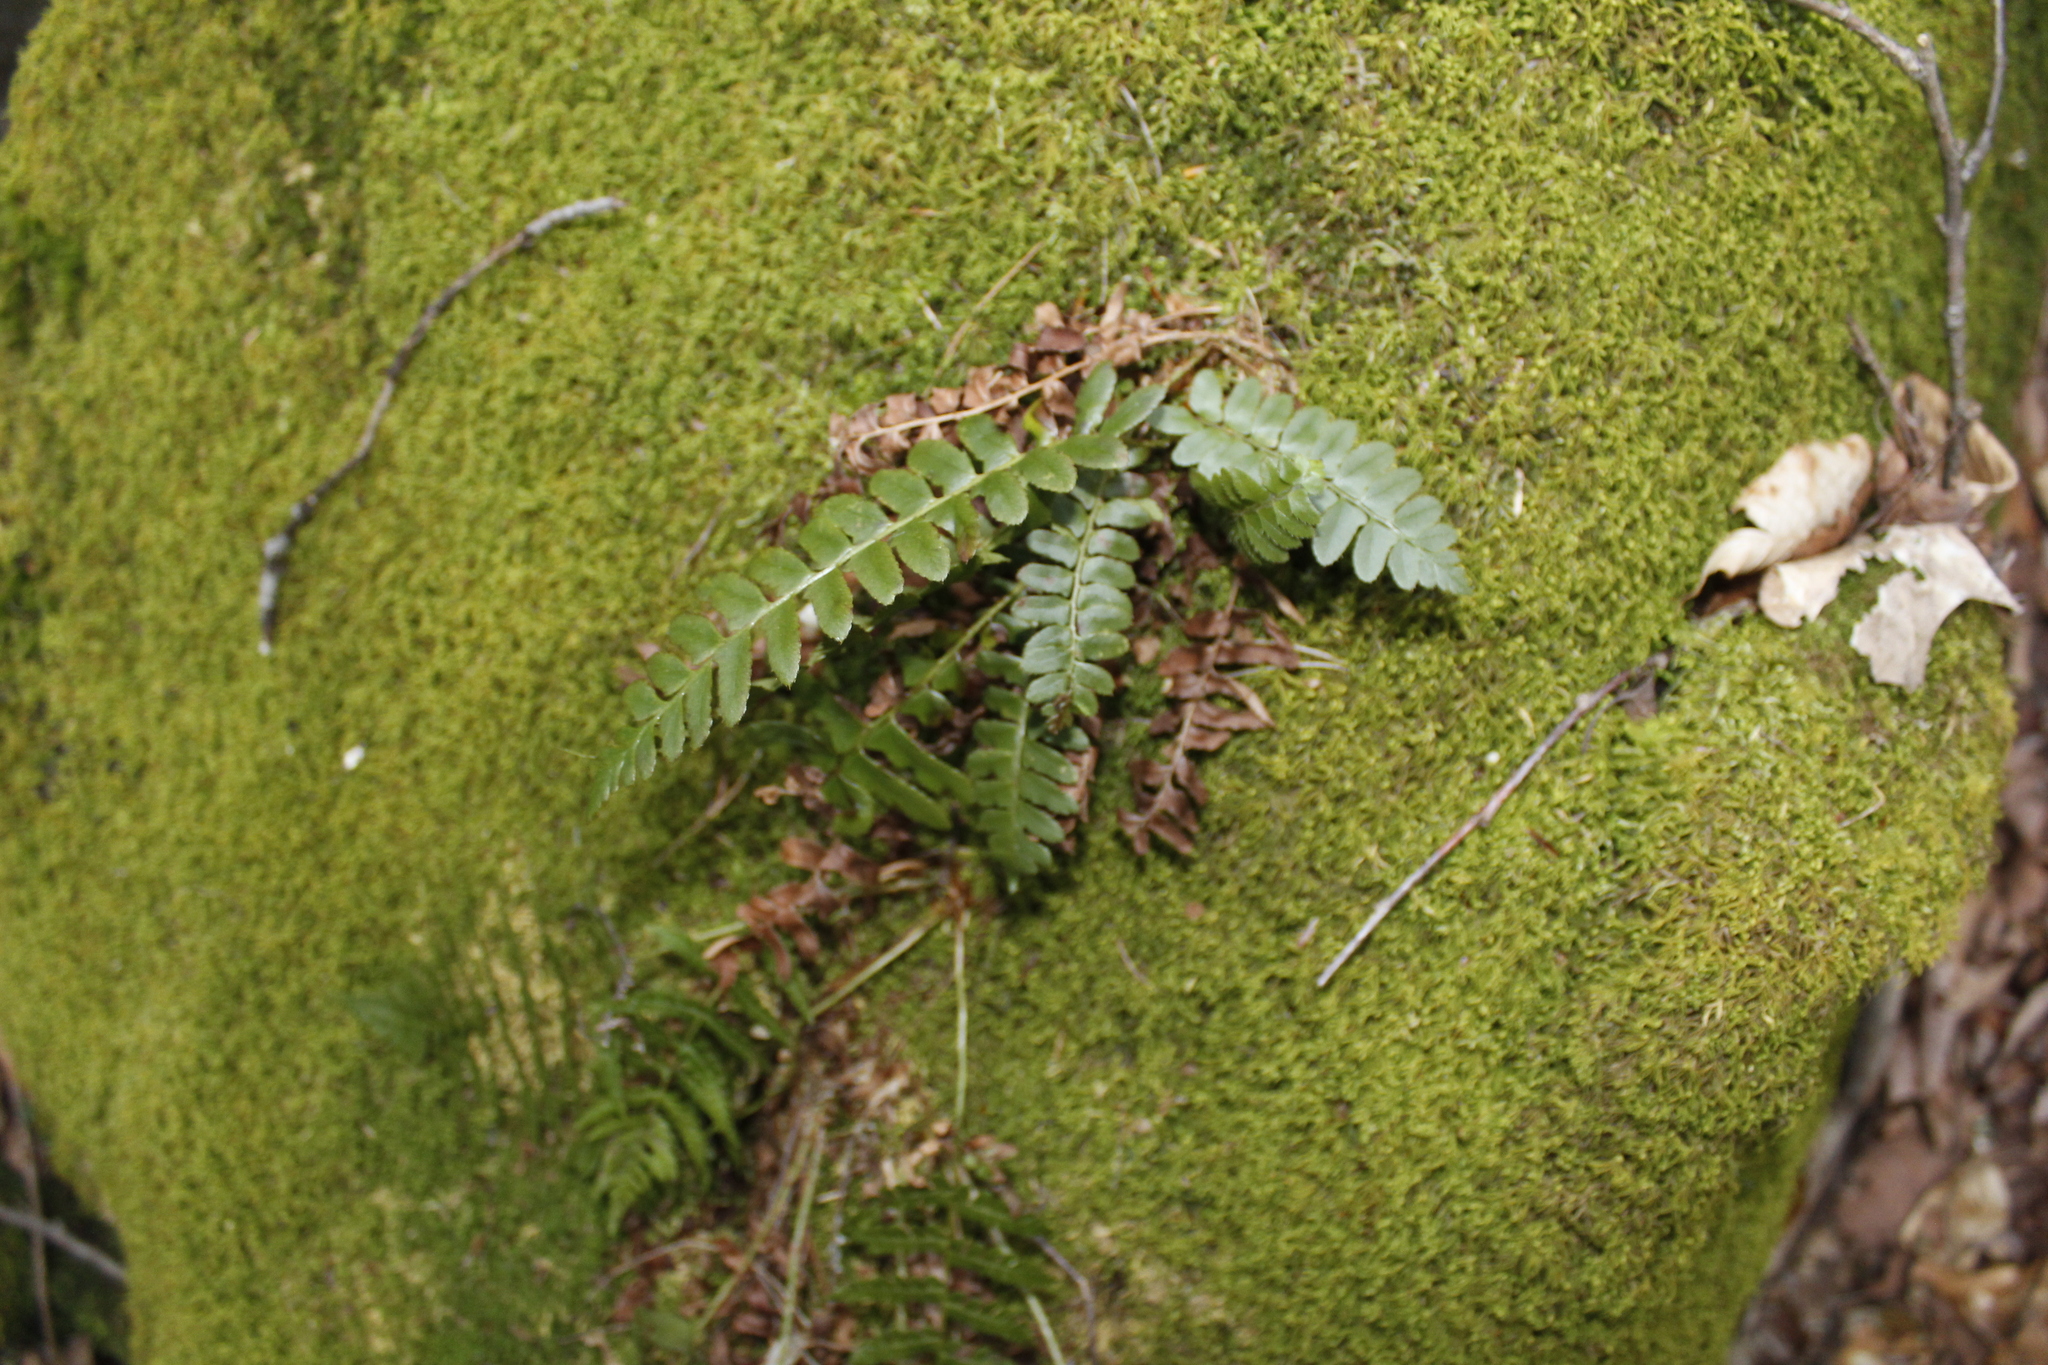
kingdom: Plantae
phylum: Tracheophyta
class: Polypodiopsida
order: Polypodiales
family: Dryopteridaceae
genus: Polystichum
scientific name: Polystichum acrostichoides
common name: Christmas fern
